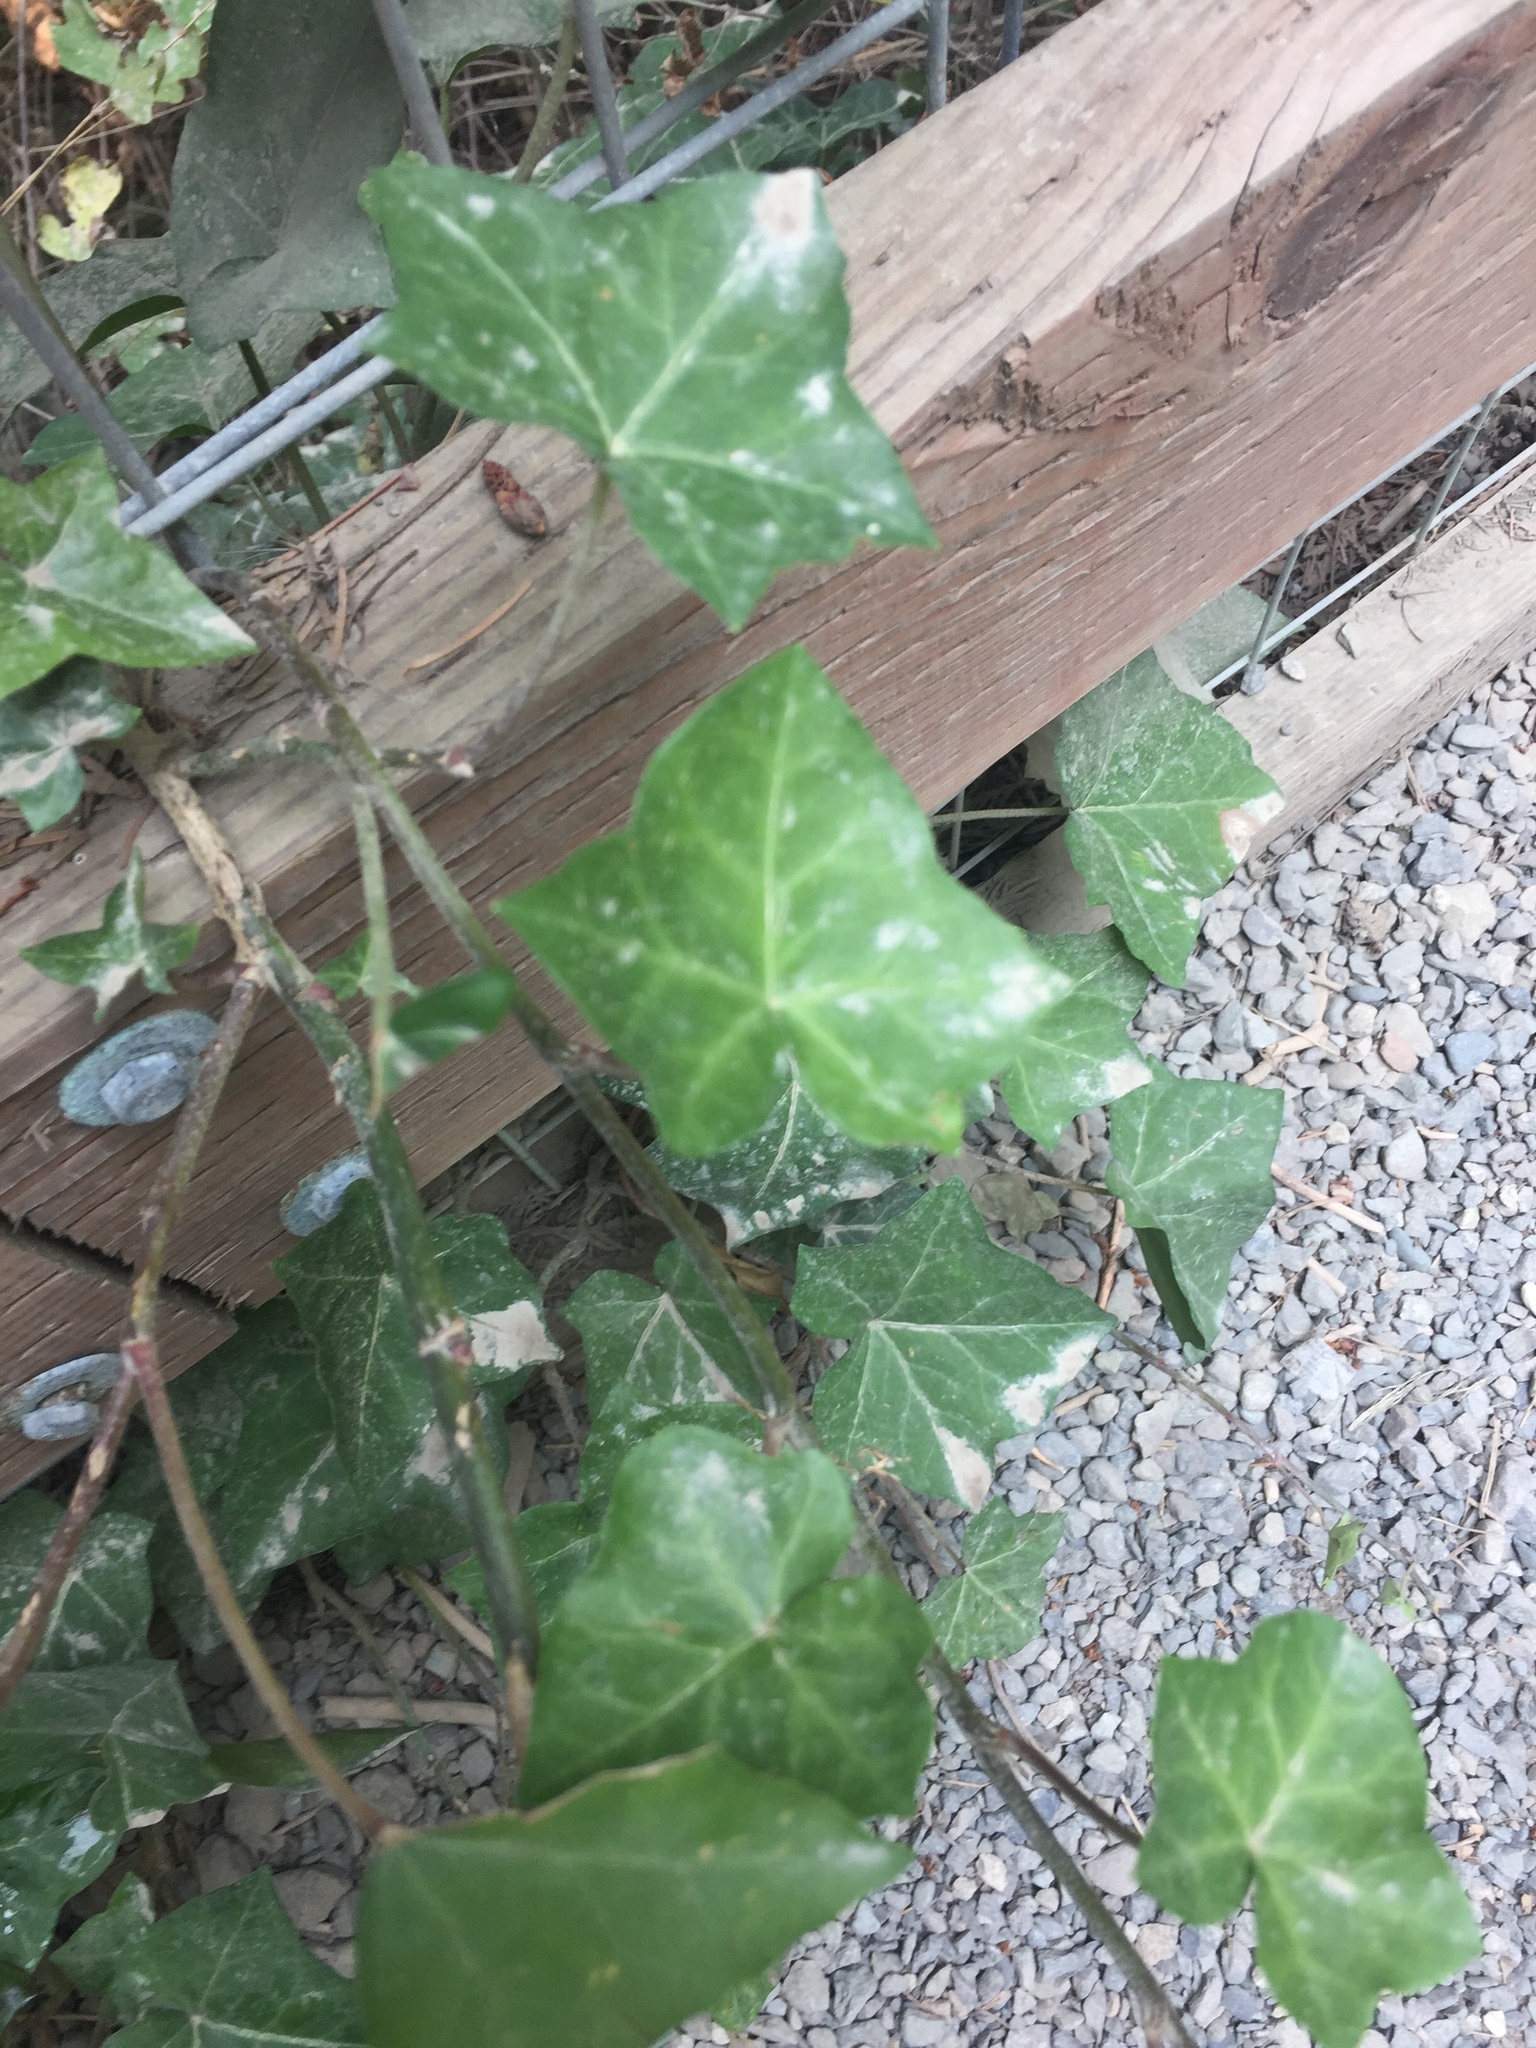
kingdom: Plantae
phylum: Tracheophyta
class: Magnoliopsida
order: Apiales
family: Araliaceae
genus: Hedera
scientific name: Hedera helix
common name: Ivy
